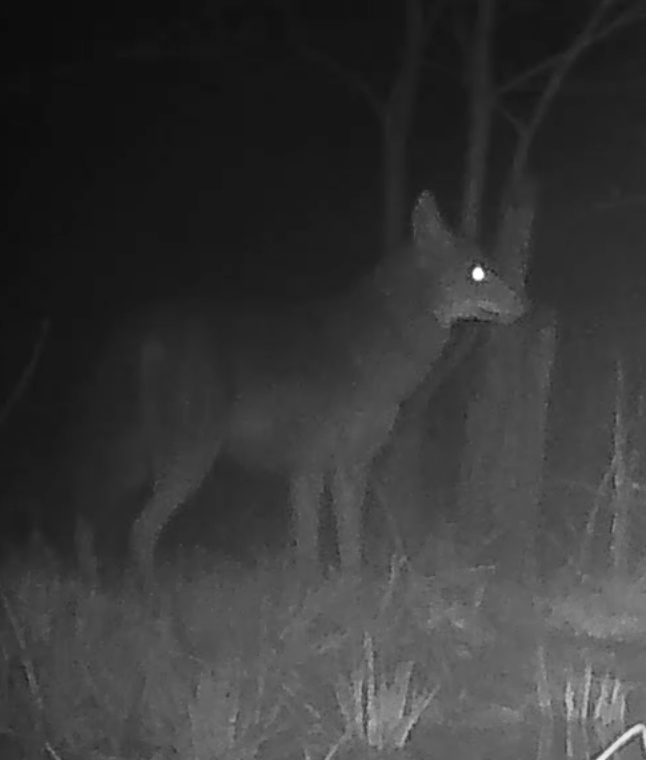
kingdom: Animalia
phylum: Chordata
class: Mammalia
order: Carnivora
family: Canidae
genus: Canis
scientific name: Canis latrans
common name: Coyote
